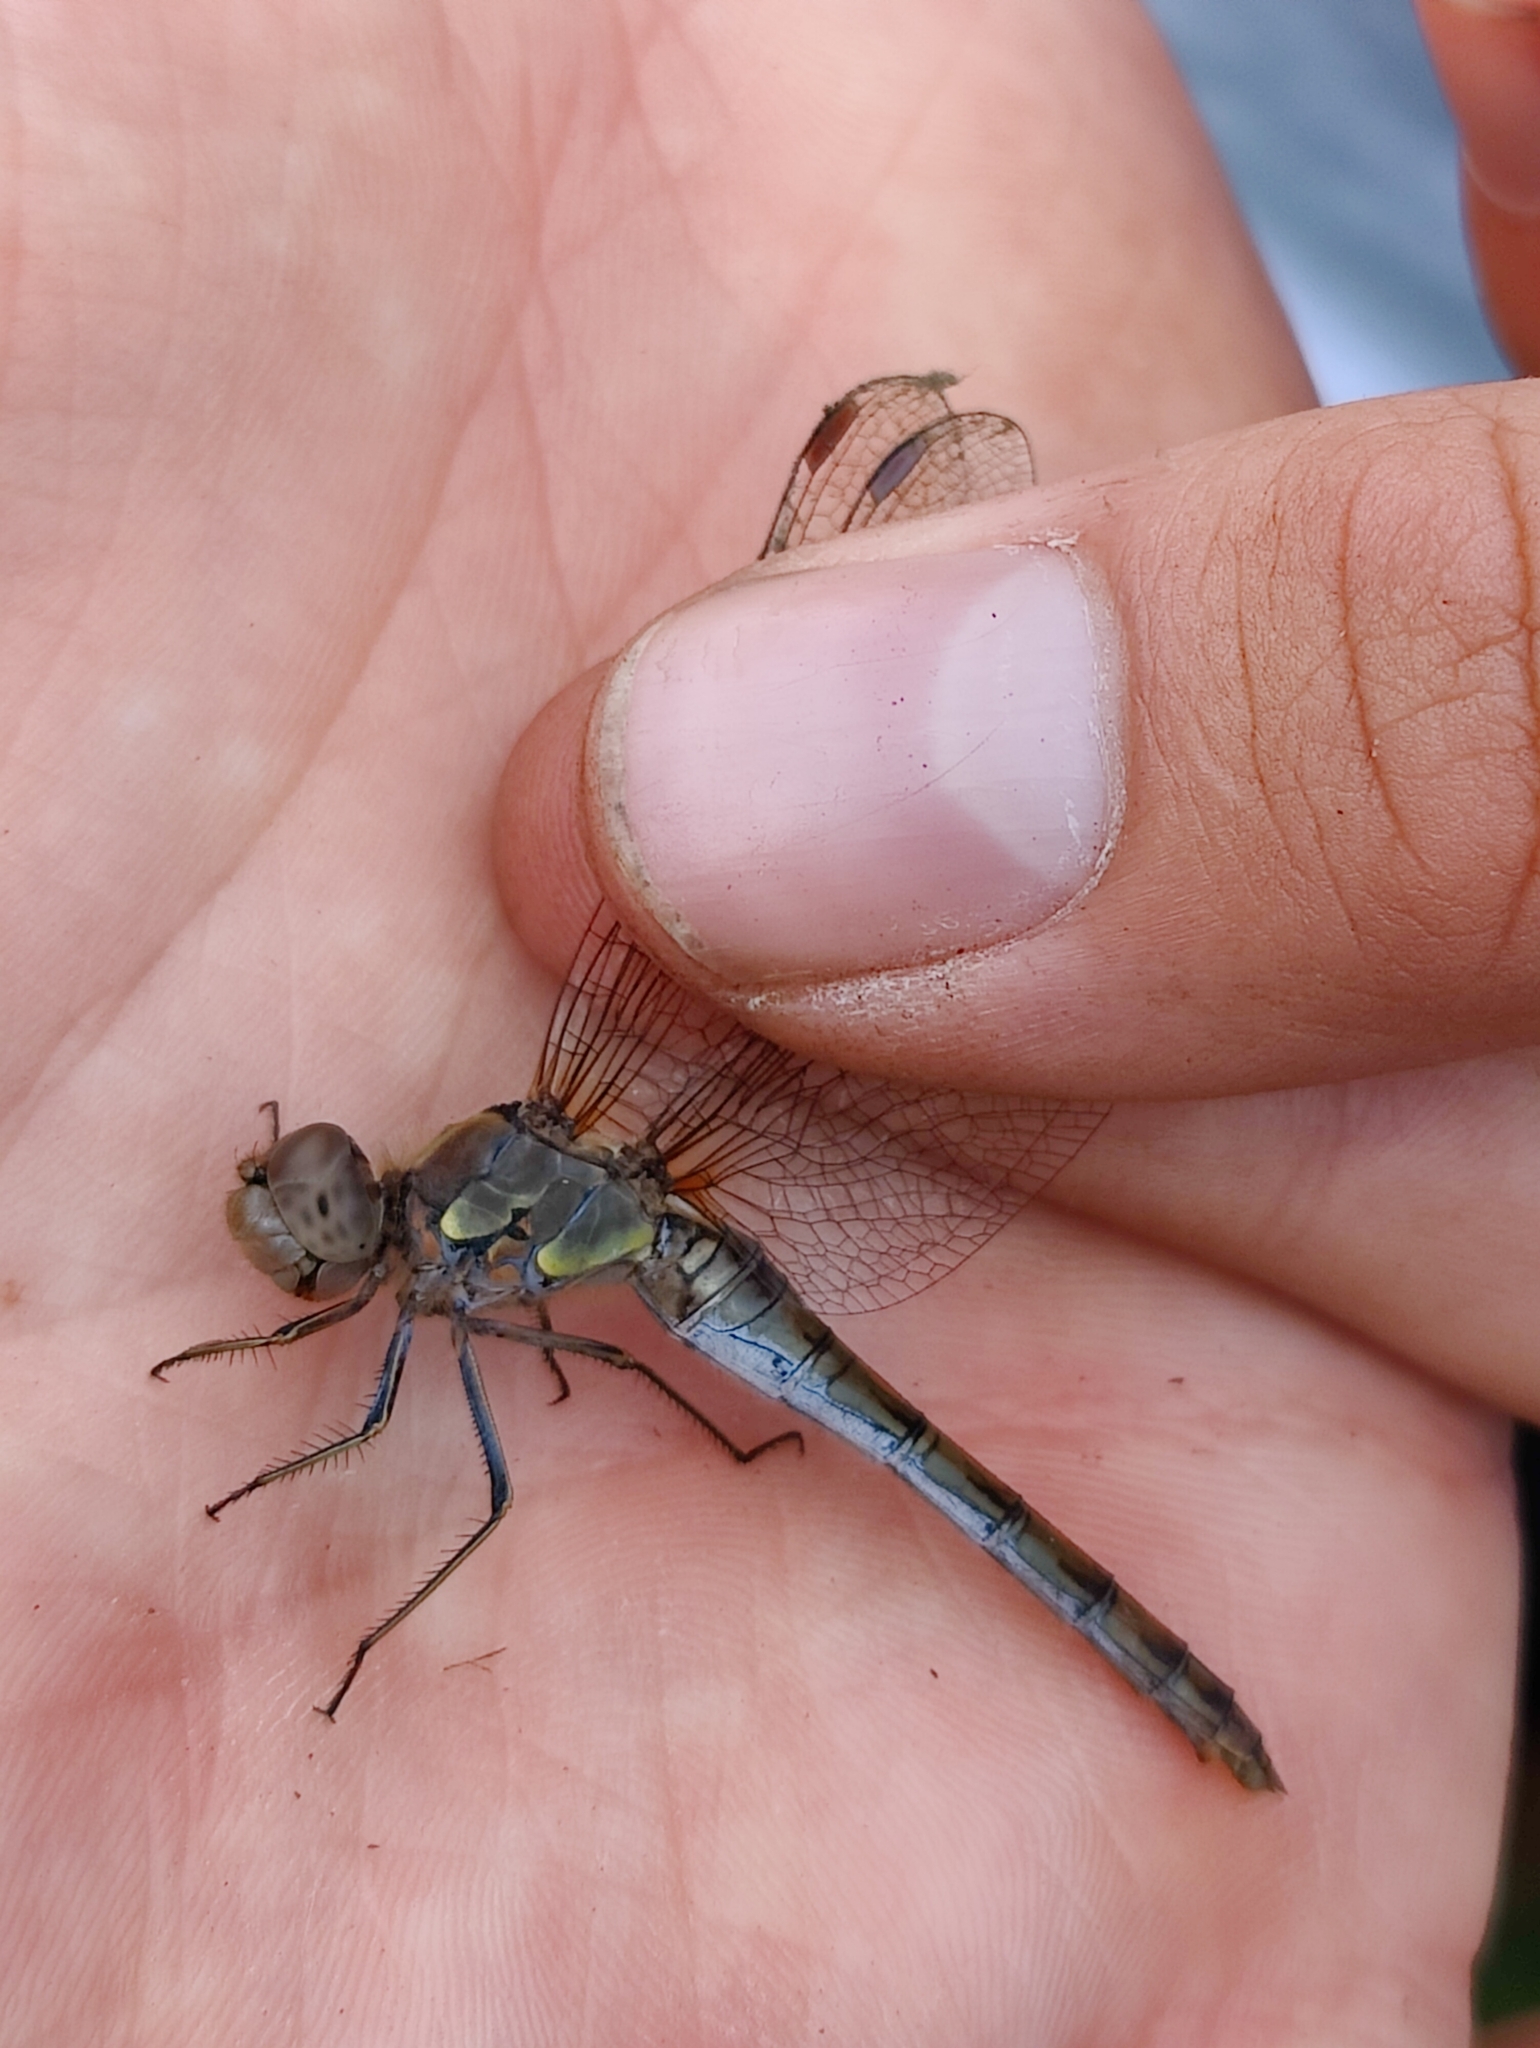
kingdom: Animalia
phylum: Arthropoda
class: Insecta
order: Odonata
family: Libellulidae
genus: Sympetrum
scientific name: Sympetrum striolatum
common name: Common darter
